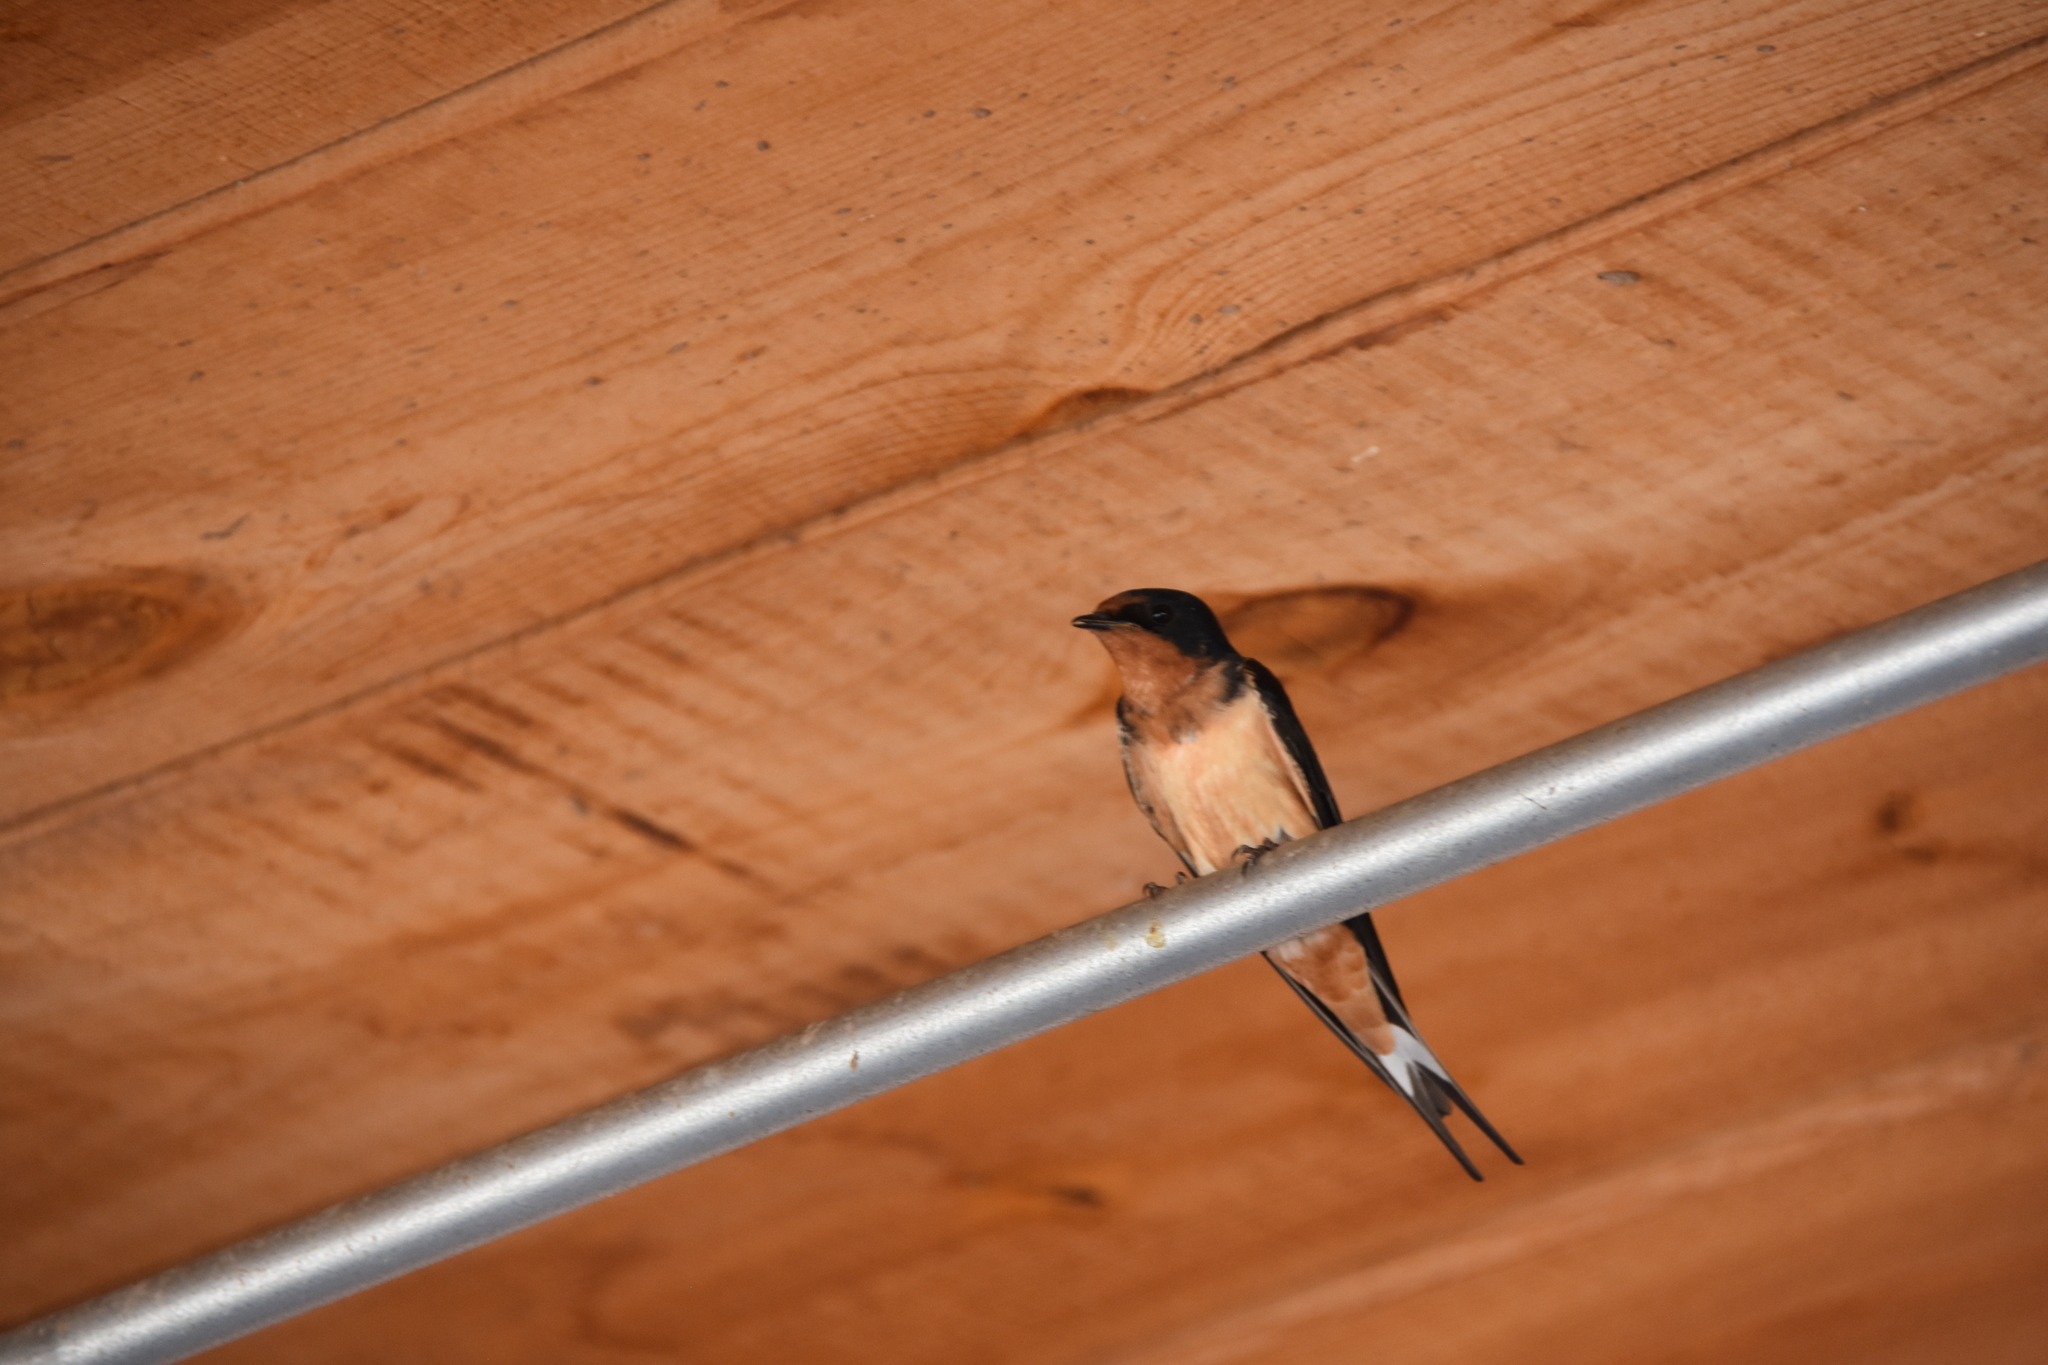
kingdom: Animalia
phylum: Chordata
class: Aves
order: Passeriformes
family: Hirundinidae
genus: Hirundo
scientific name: Hirundo rustica
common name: Barn swallow
